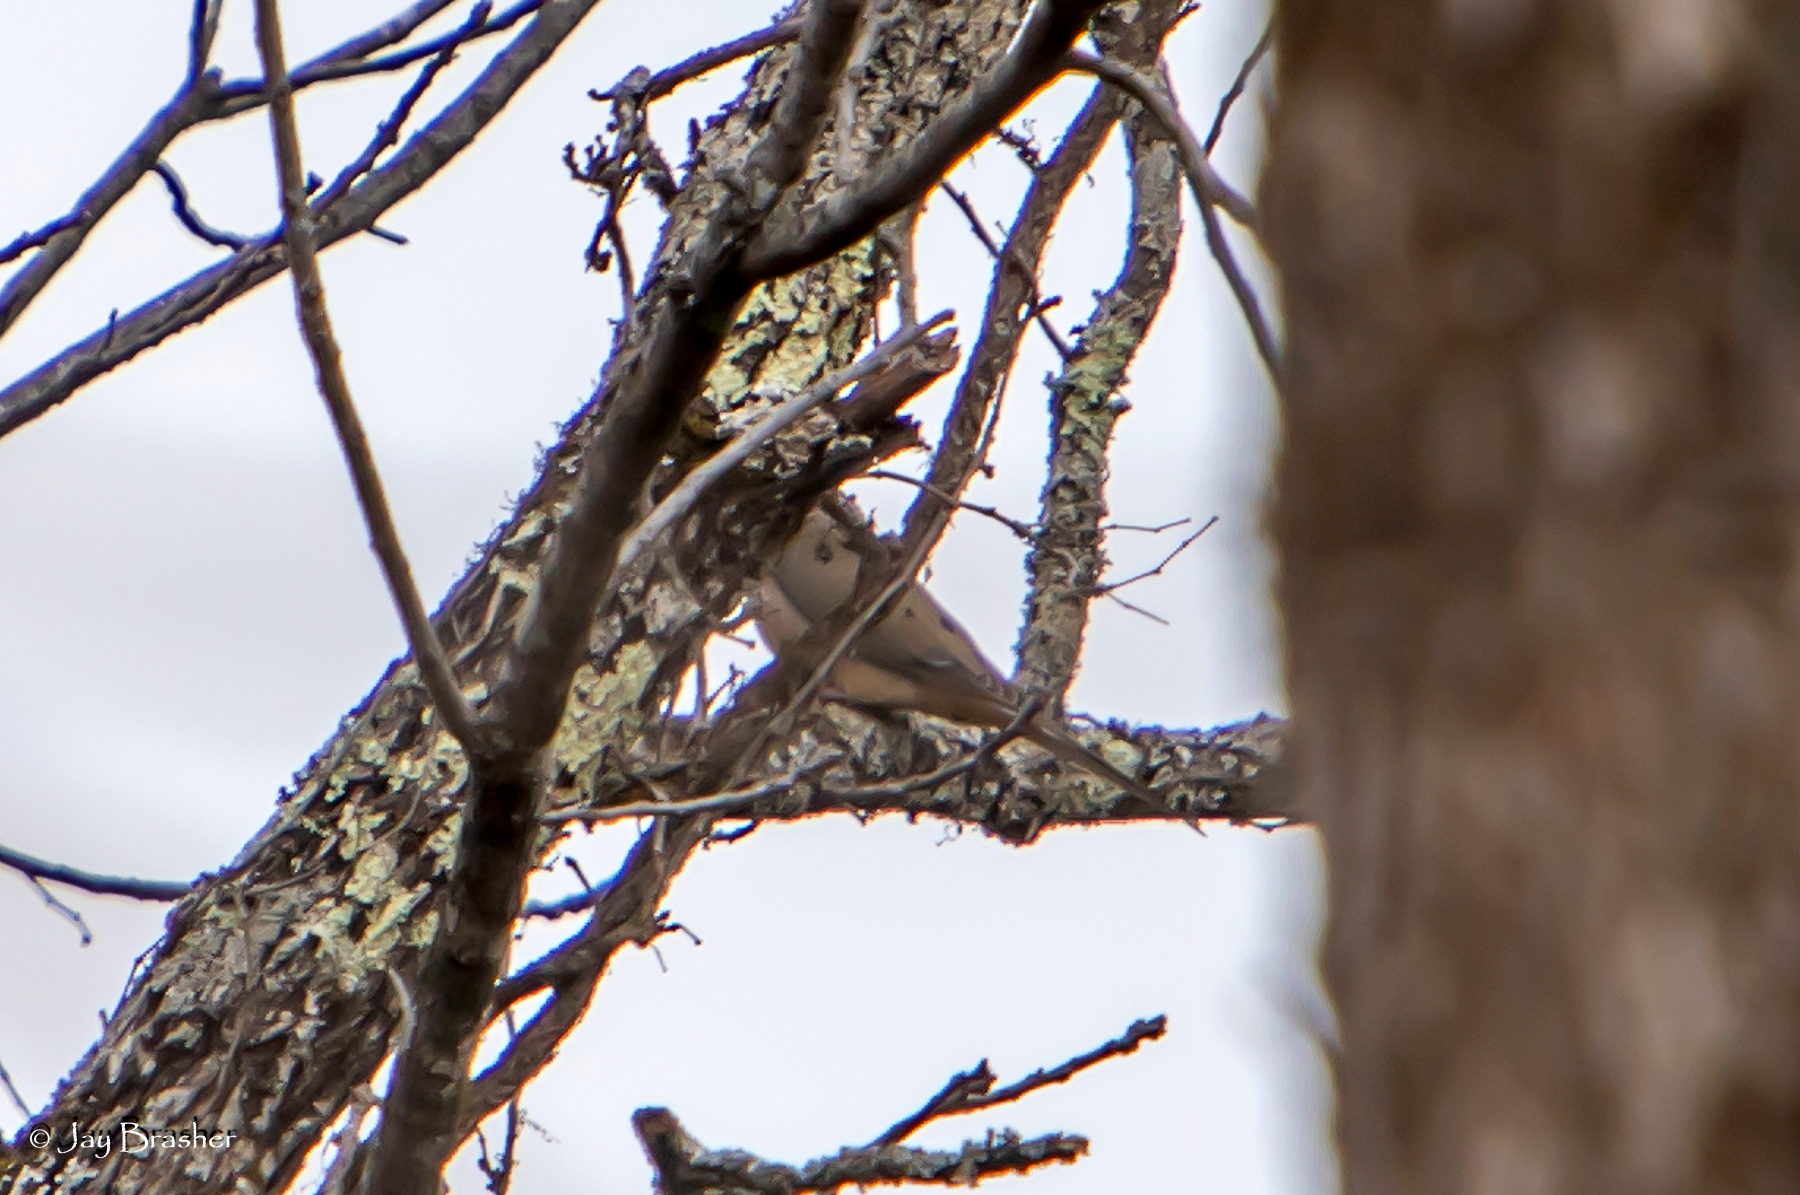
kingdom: Animalia
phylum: Chordata
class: Aves
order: Columbiformes
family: Columbidae
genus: Zenaida
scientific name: Zenaida macroura
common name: Mourning dove
